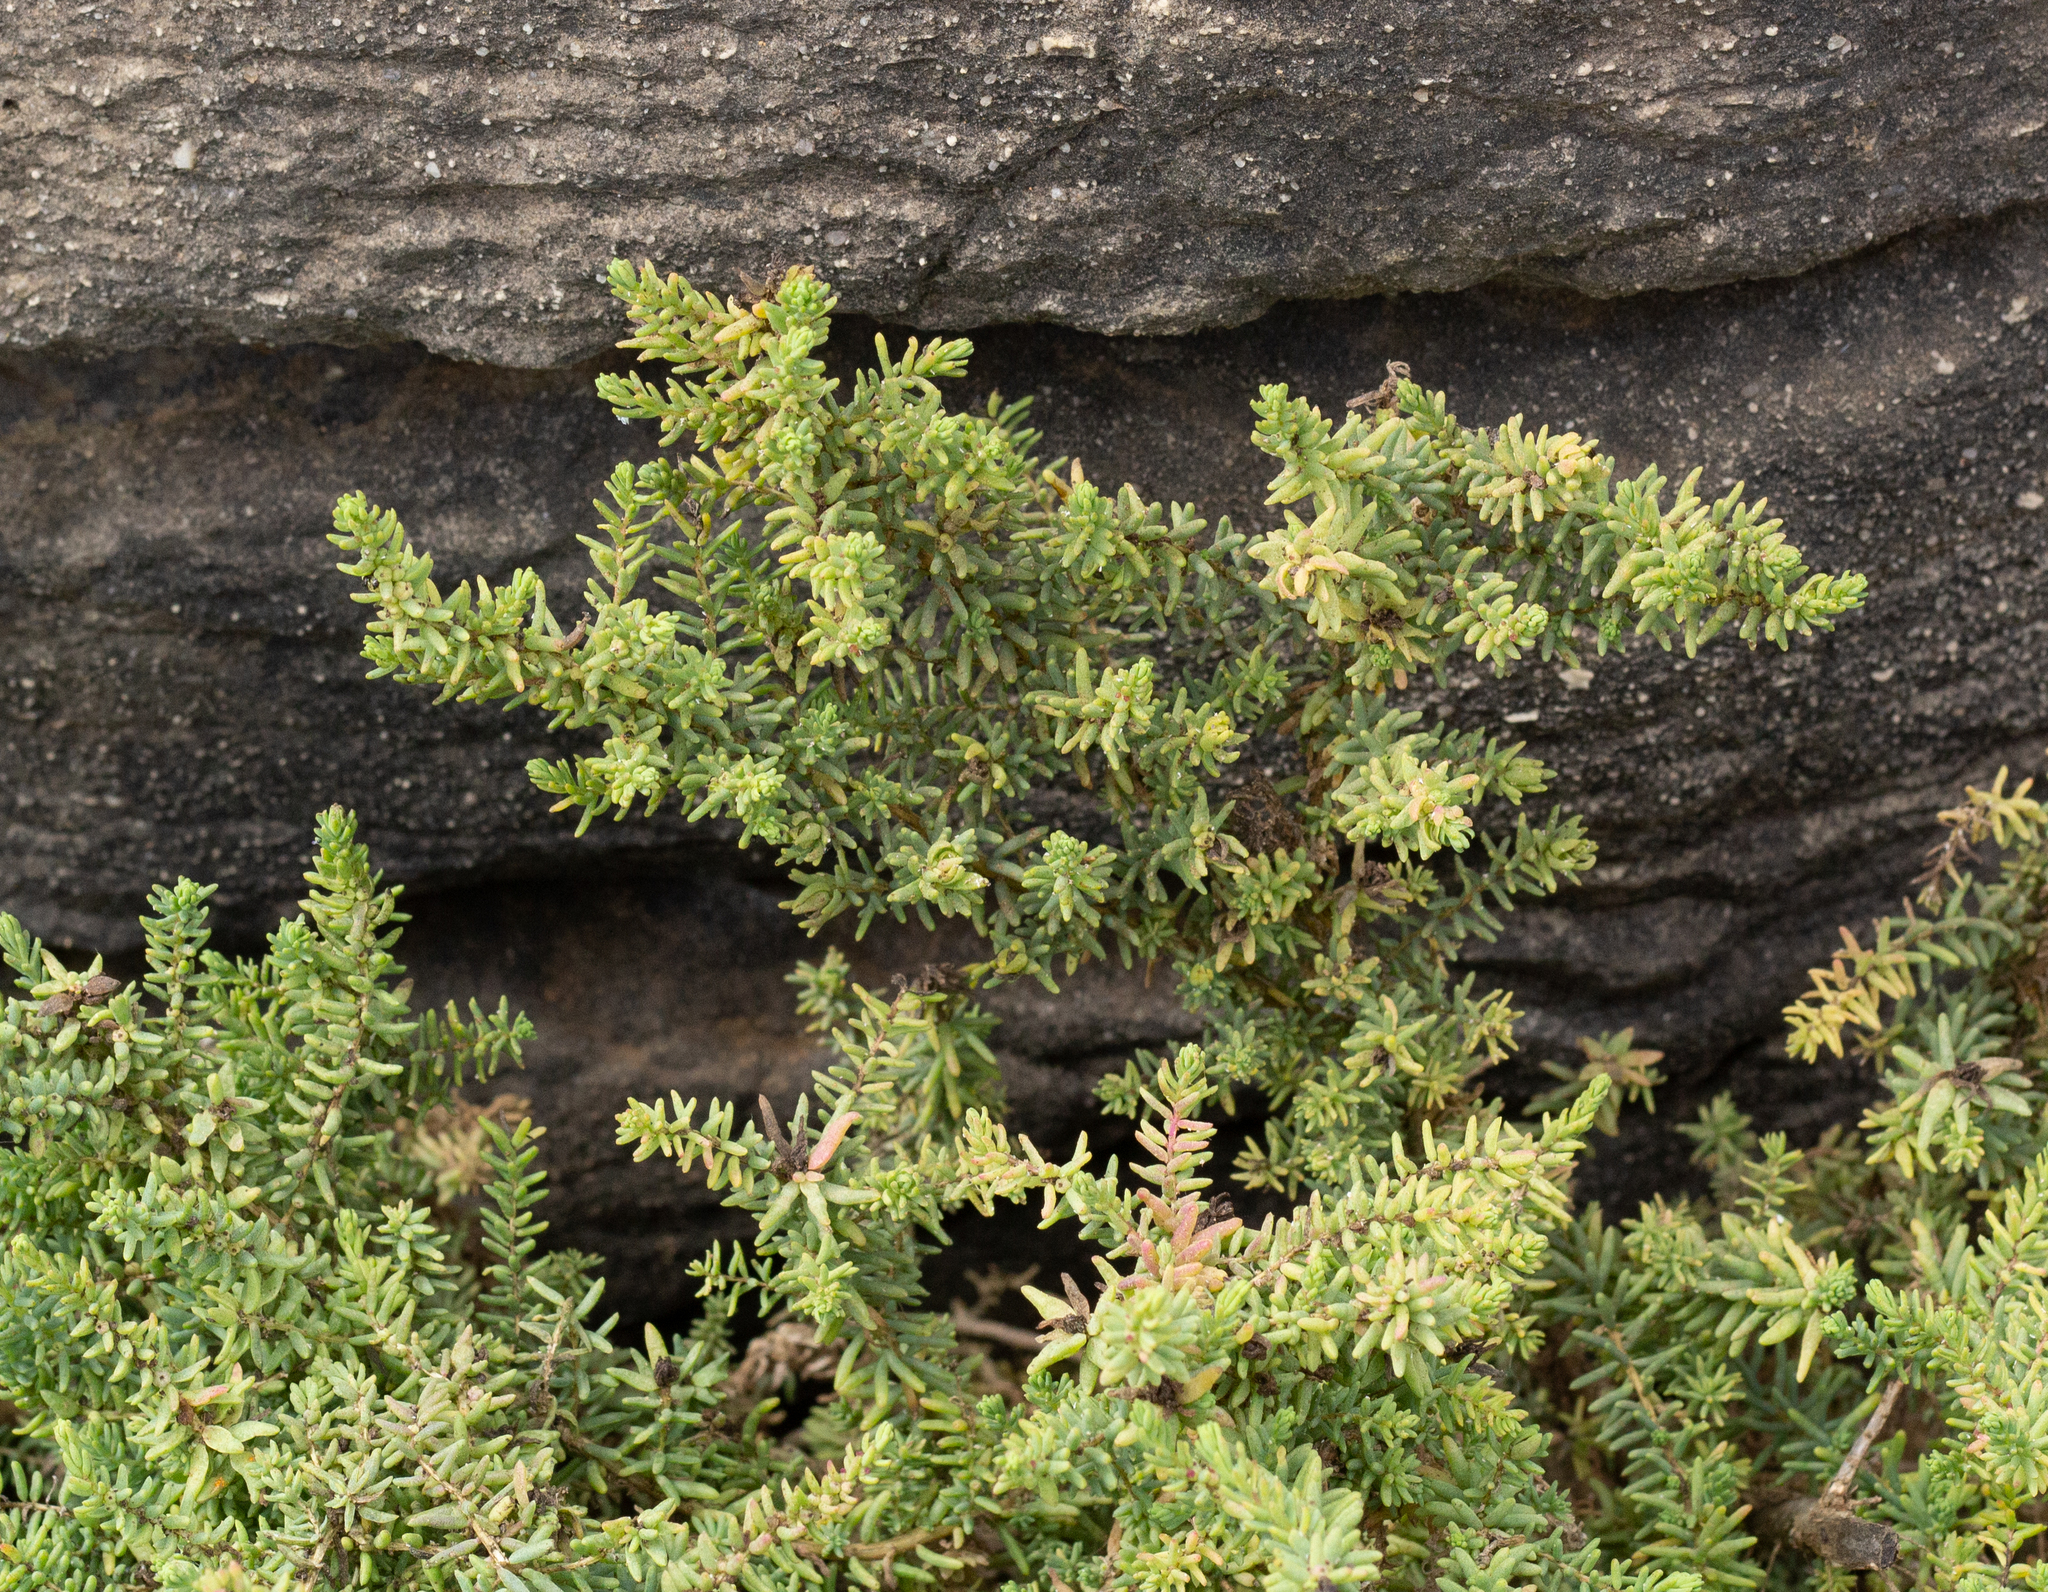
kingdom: Plantae
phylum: Tracheophyta
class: Magnoliopsida
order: Caryophyllales
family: Amaranthaceae
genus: Suaeda
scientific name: Suaeda vera
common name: Shrubby sea-blite
